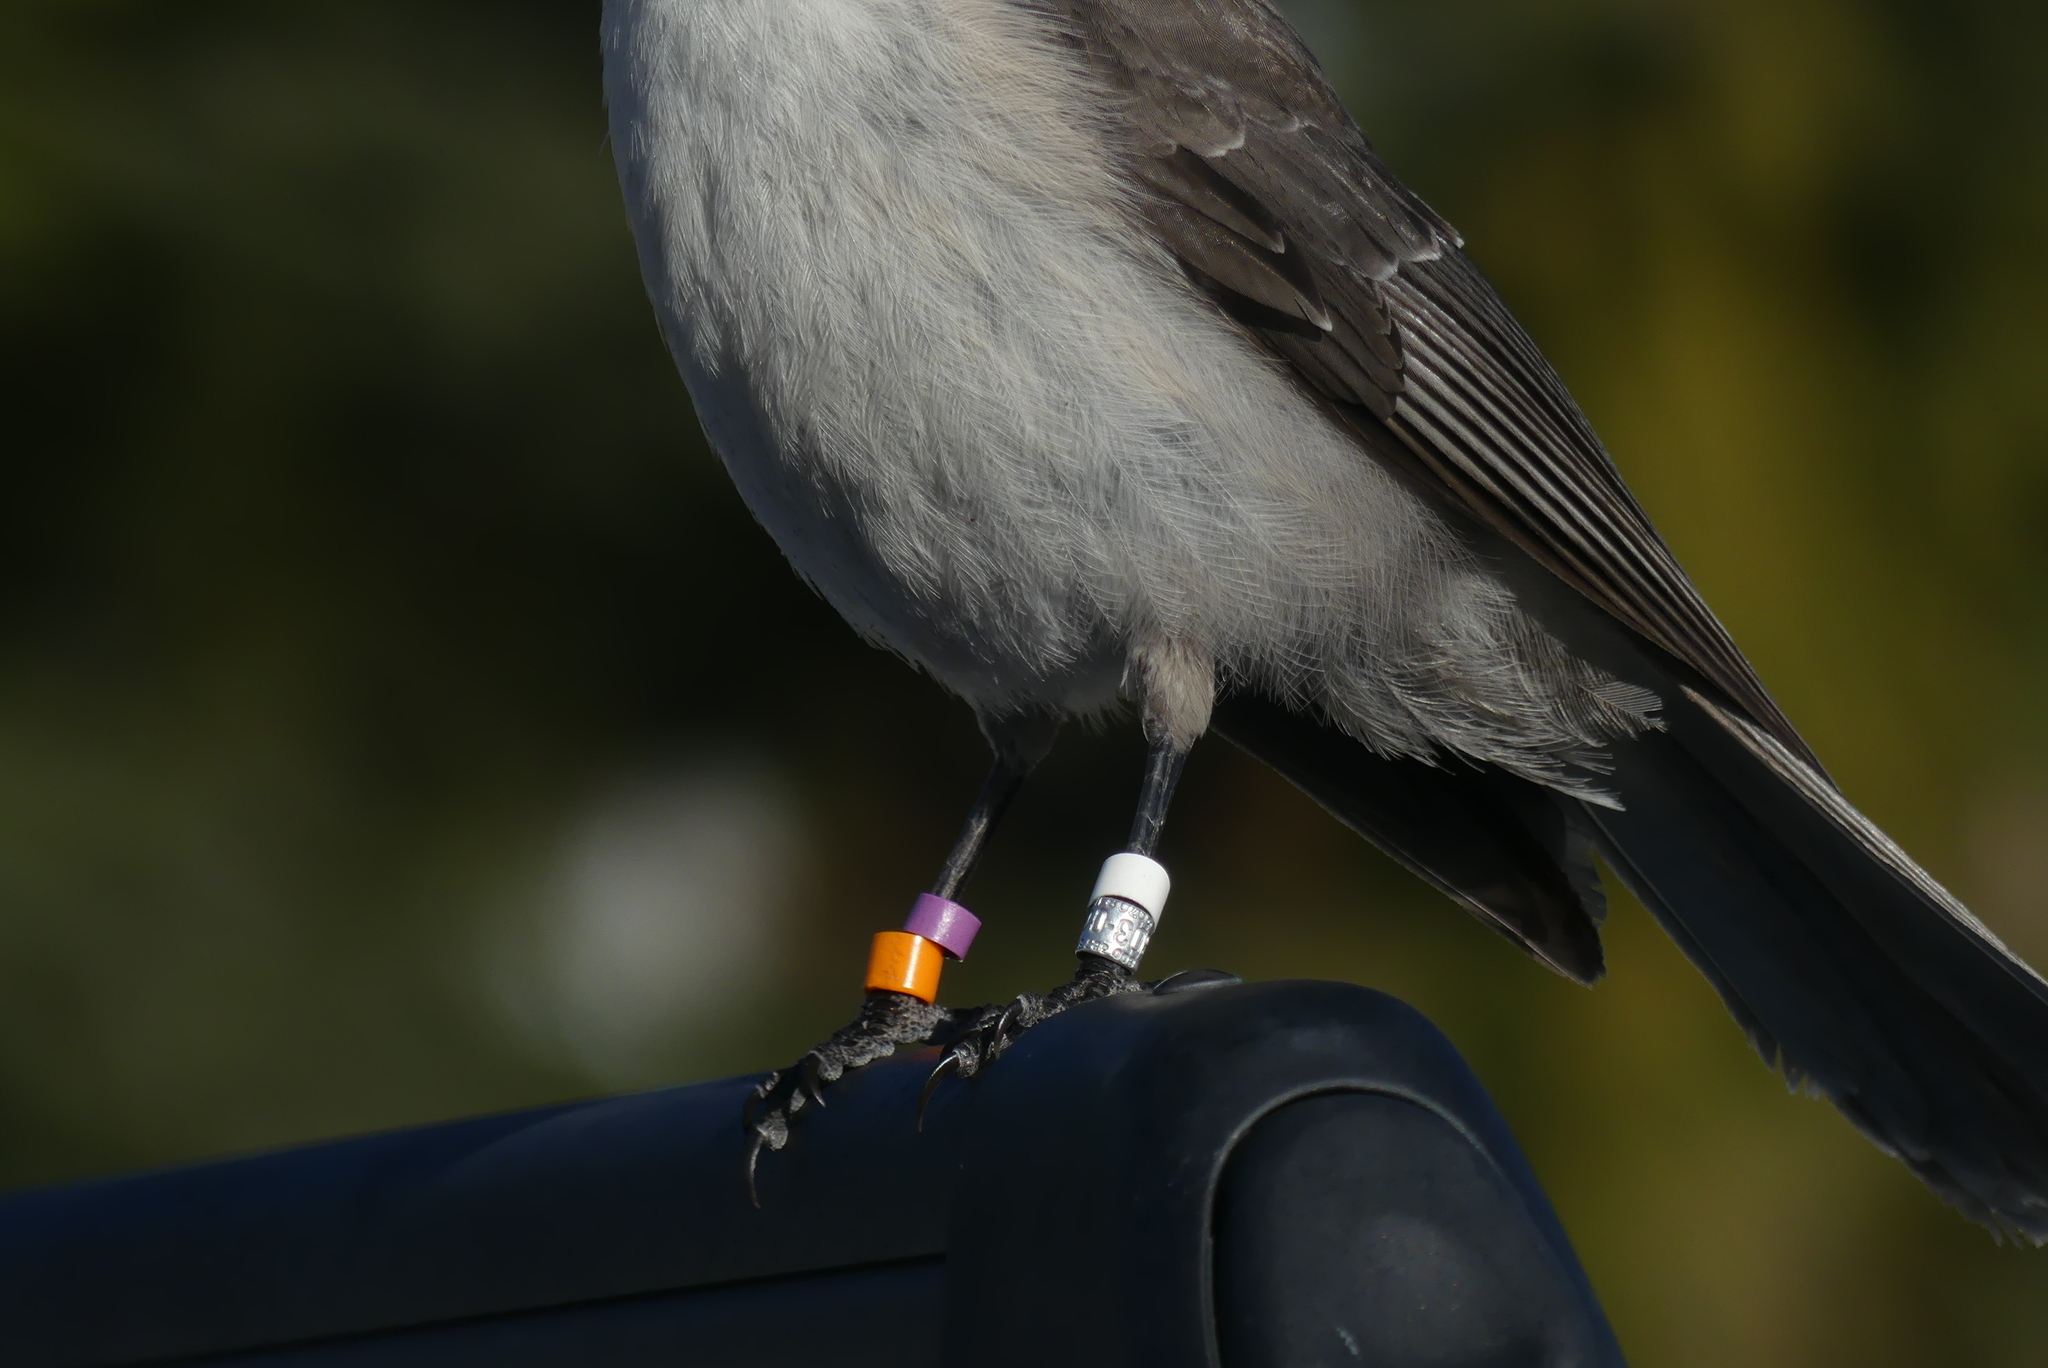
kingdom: Animalia
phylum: Chordata
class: Aves
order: Passeriformes
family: Corvidae
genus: Perisoreus
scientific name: Perisoreus canadensis
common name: Gray jay
